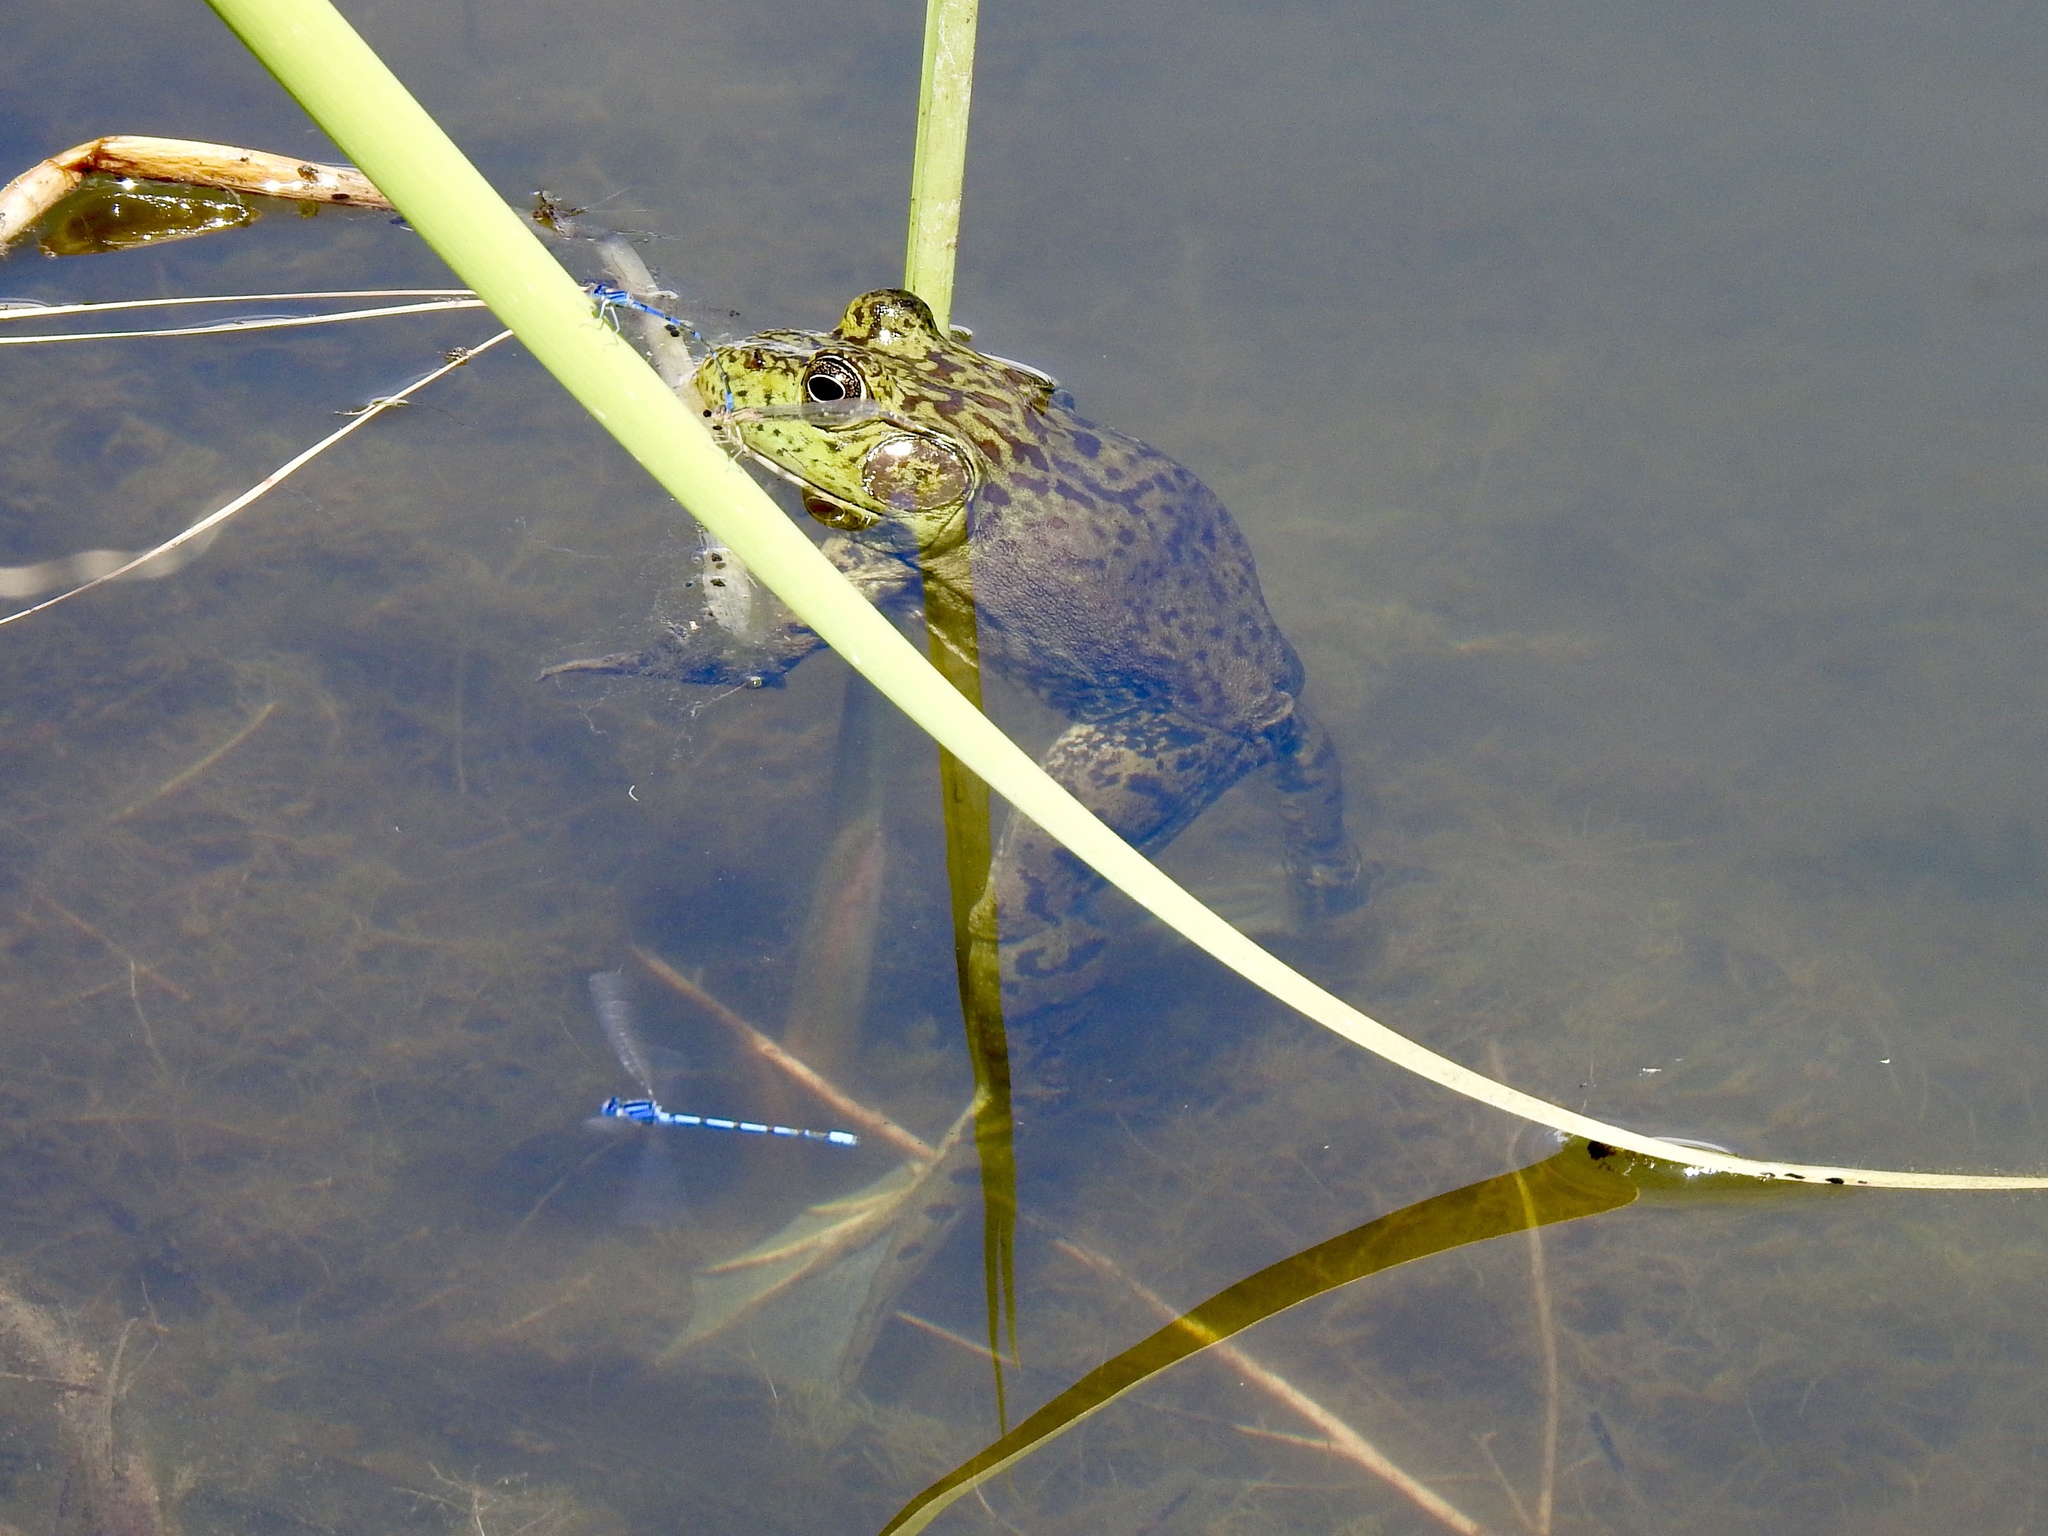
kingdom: Animalia
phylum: Chordata
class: Amphibia
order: Anura
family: Ranidae
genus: Lithobates
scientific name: Lithobates catesbeianus
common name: American bullfrog
